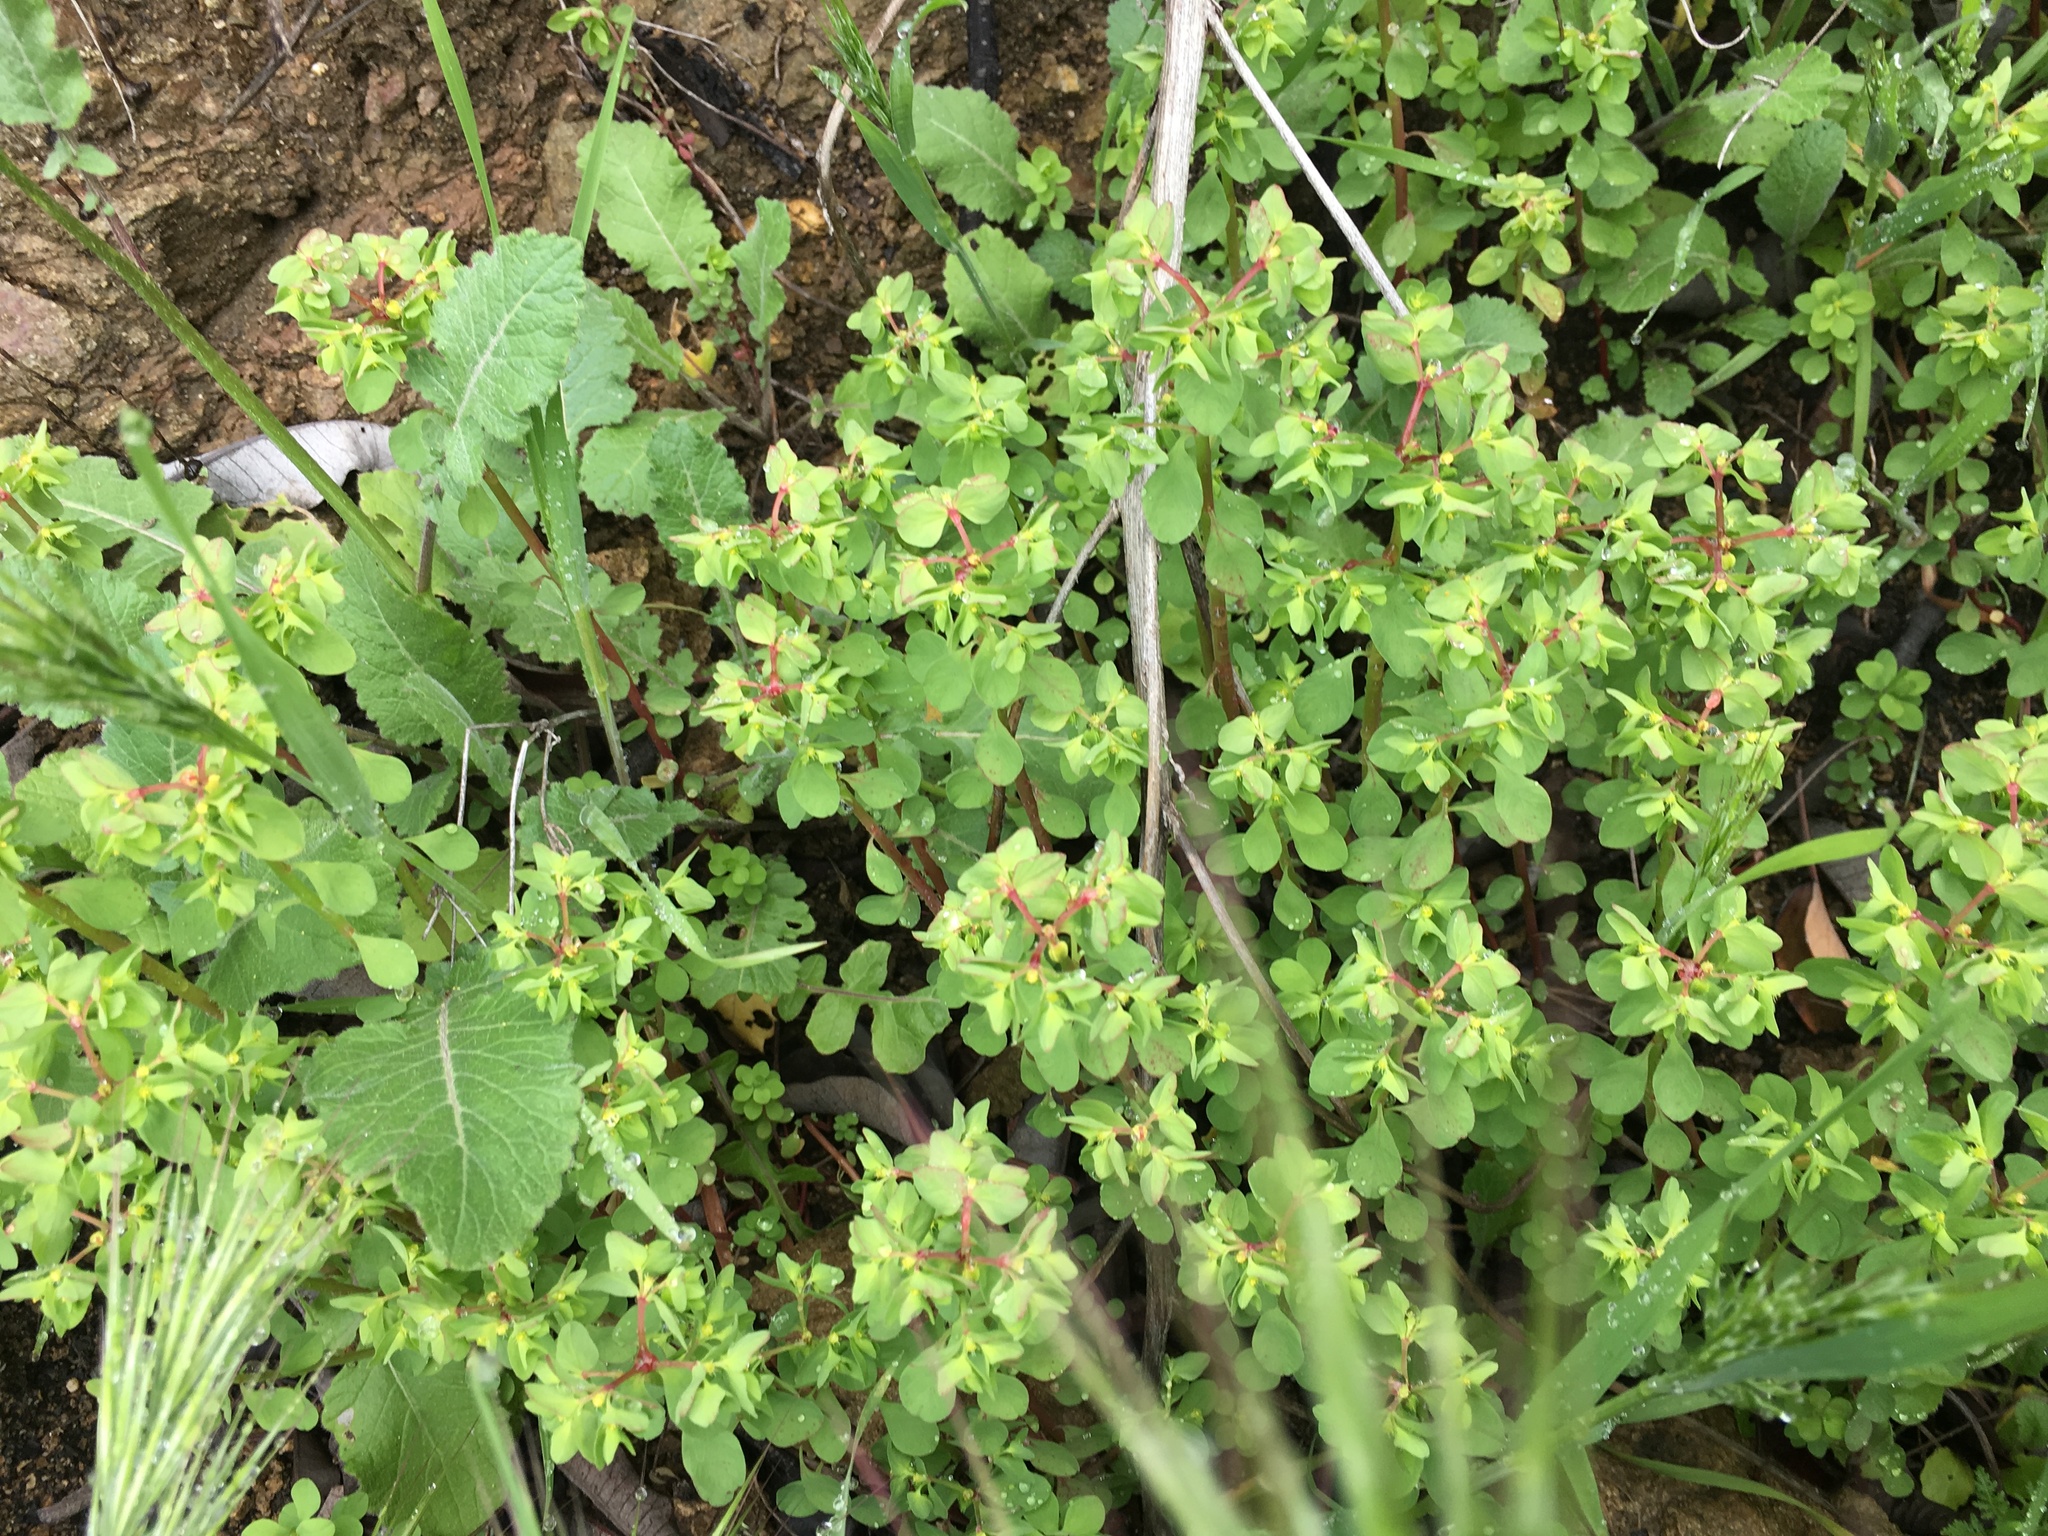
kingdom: Plantae
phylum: Tracheophyta
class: Magnoliopsida
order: Malpighiales
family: Euphorbiaceae
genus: Euphorbia
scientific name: Euphorbia peplus
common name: Petty spurge
